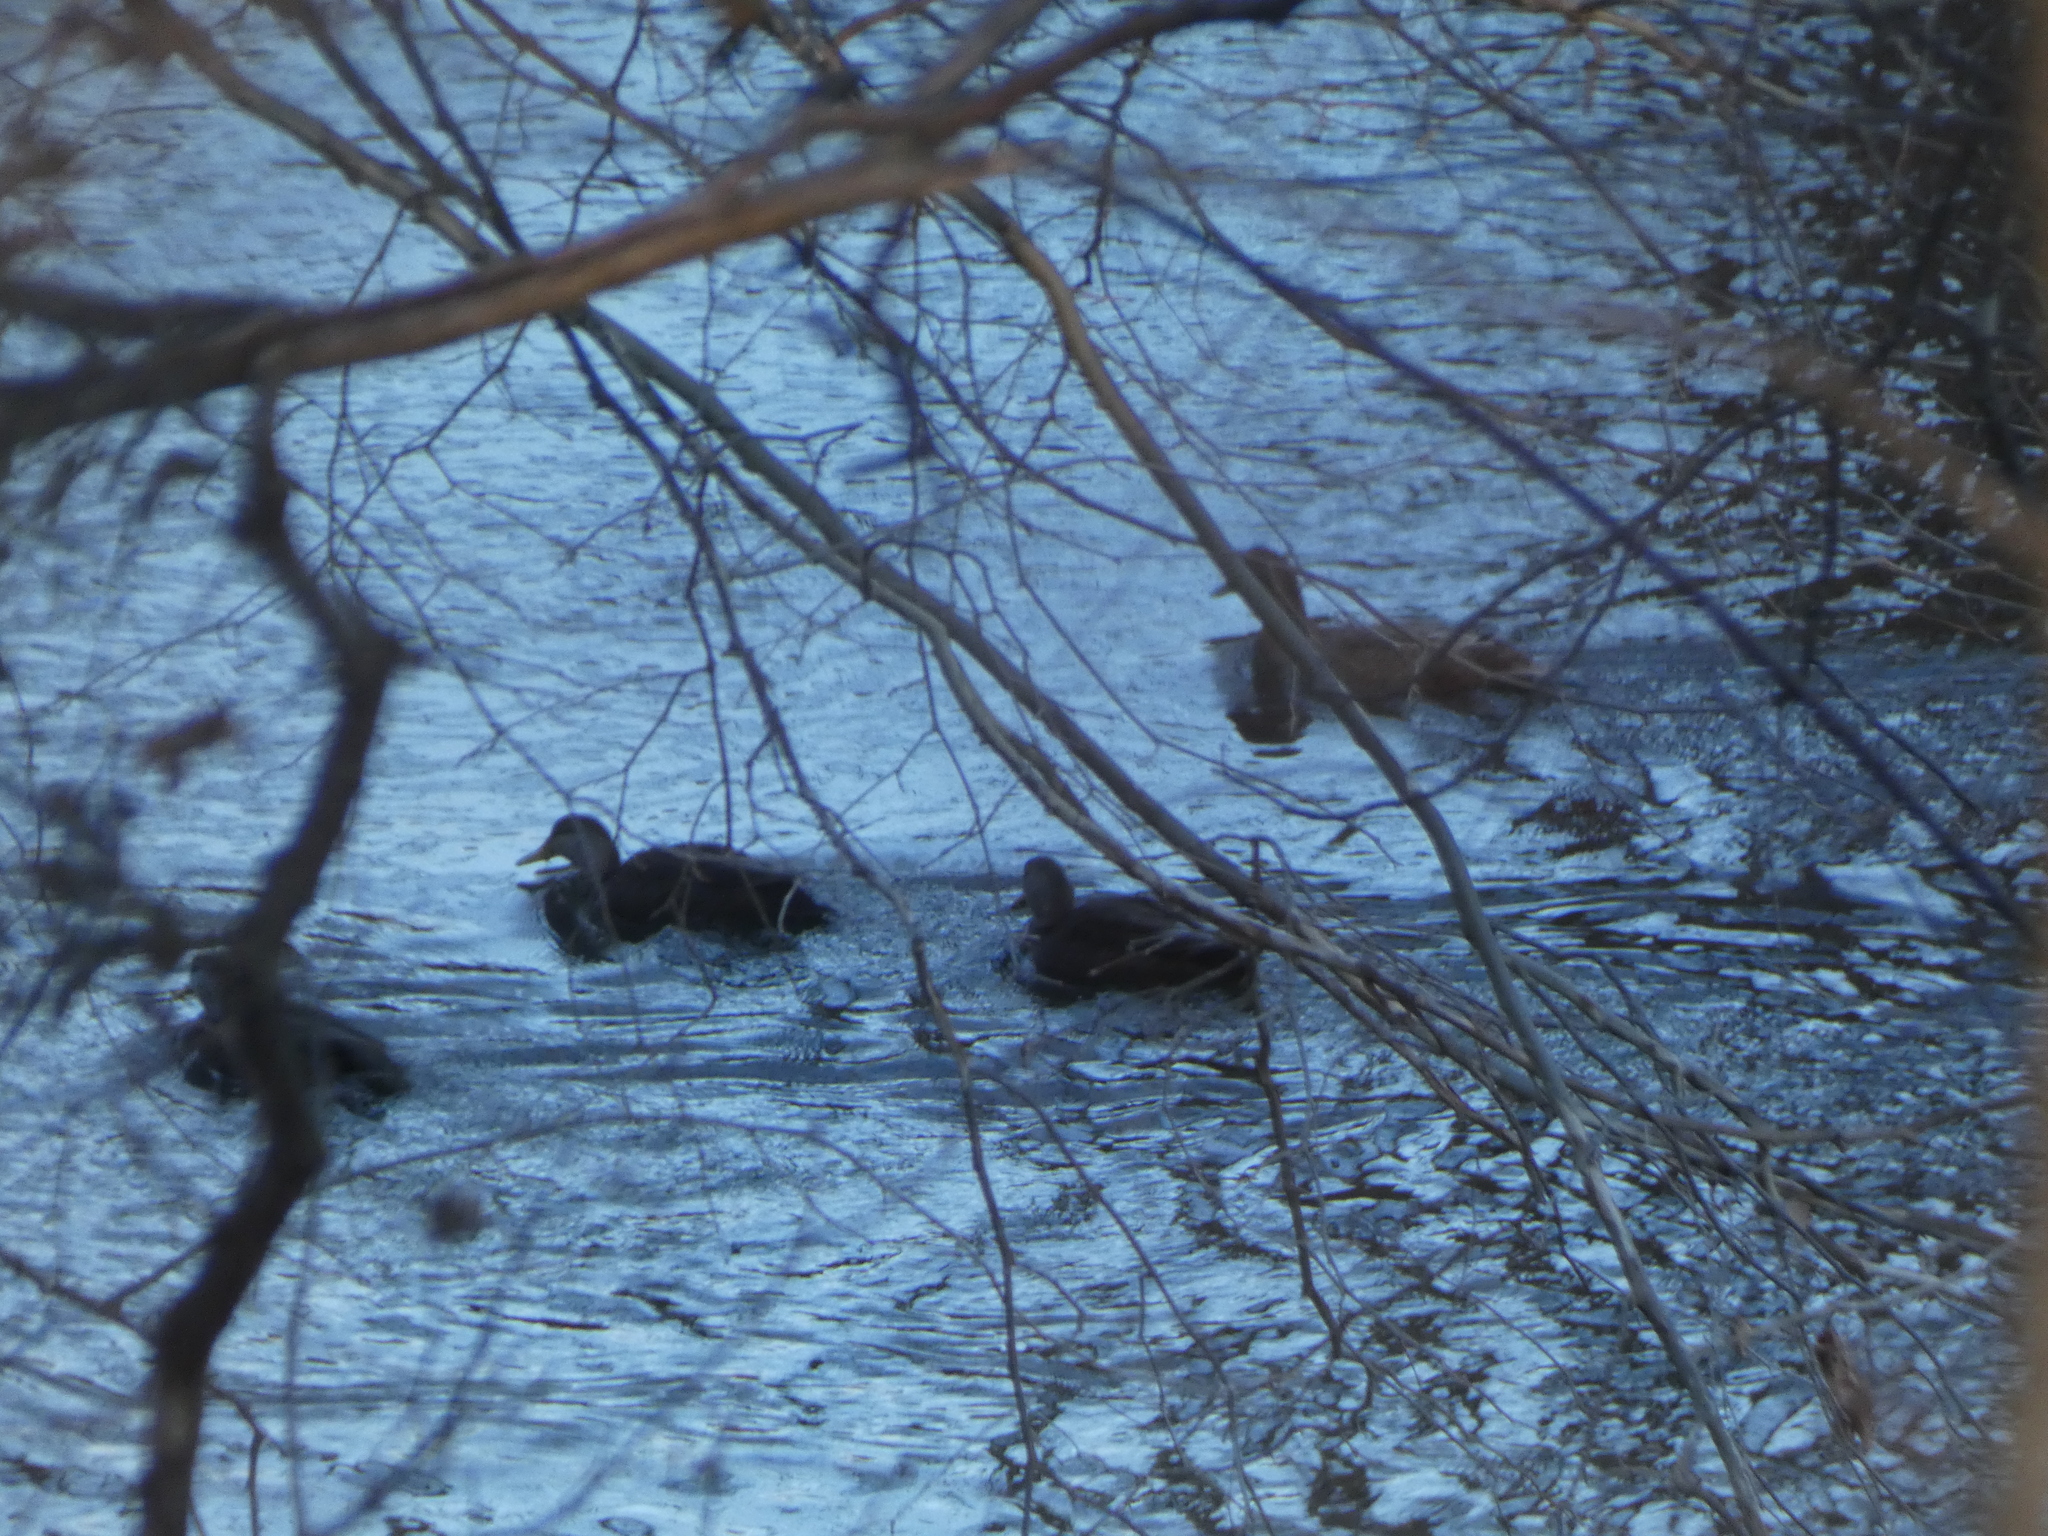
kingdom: Animalia
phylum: Chordata
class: Aves
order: Anseriformes
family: Anatidae
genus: Anas
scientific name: Anas rubripes
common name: American black duck
